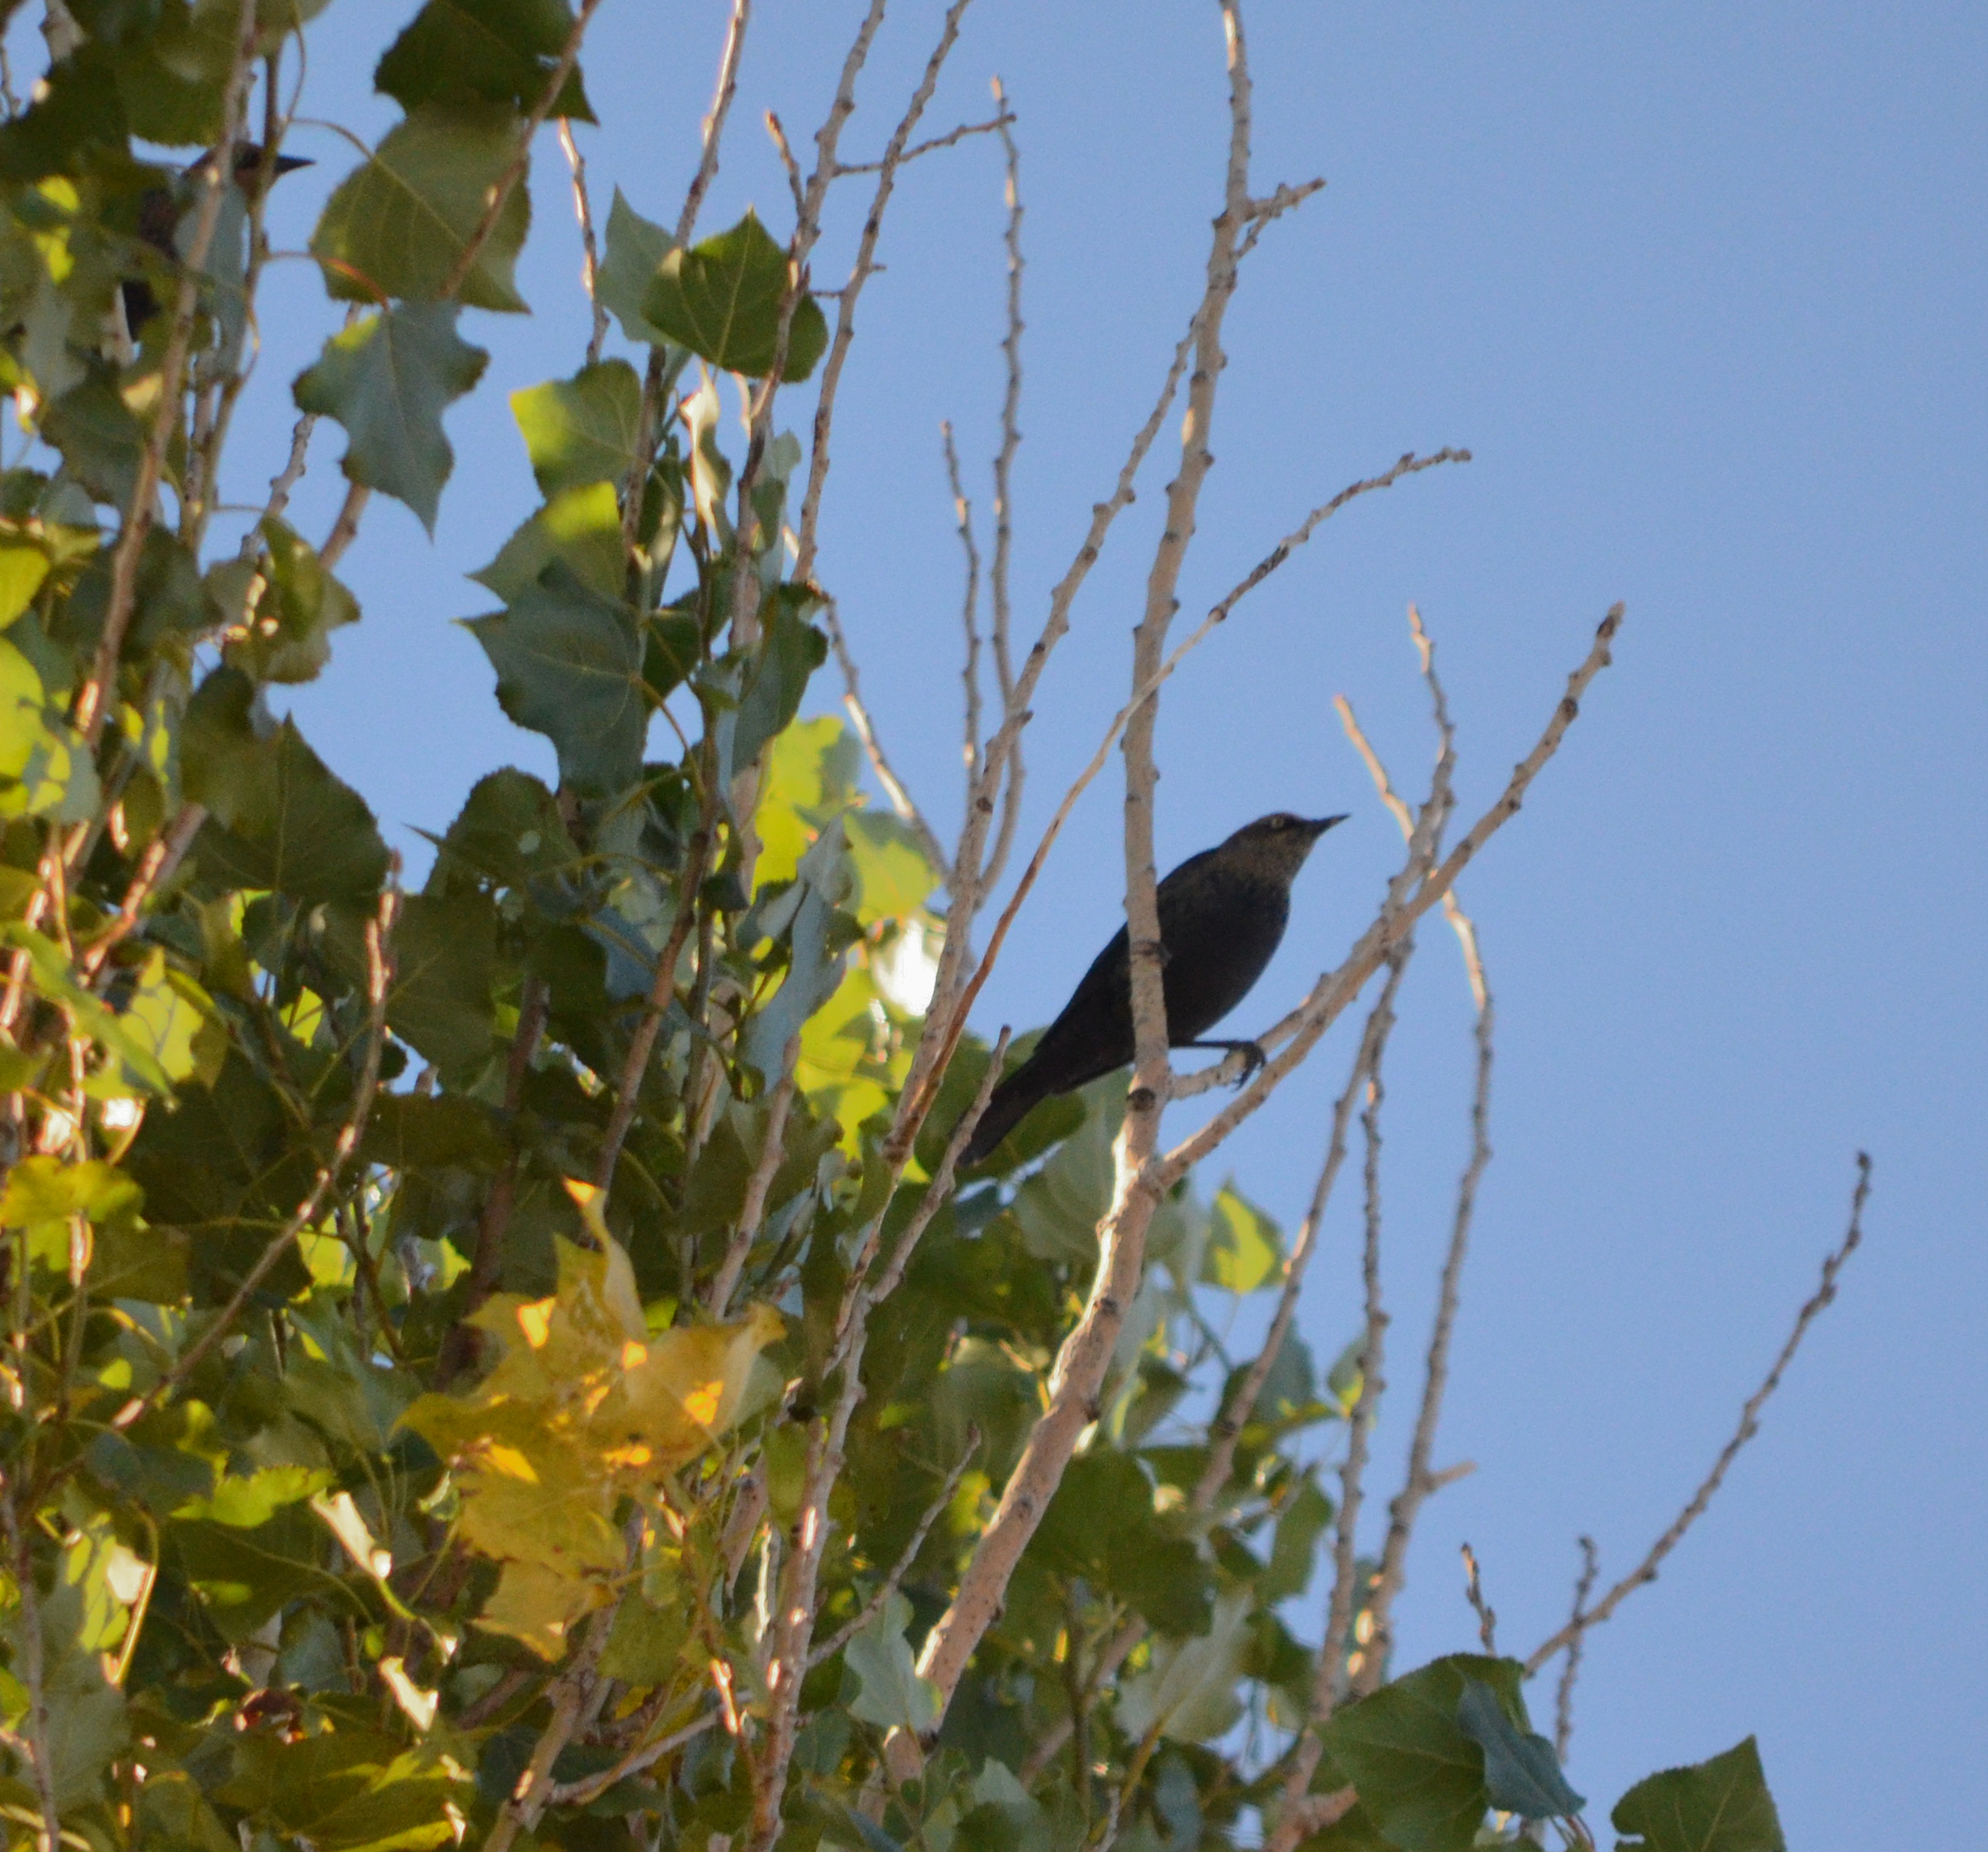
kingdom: Animalia
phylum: Chordata
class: Aves
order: Passeriformes
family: Icteridae
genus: Euphagus
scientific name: Euphagus carolinus
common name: Rusty blackbird
